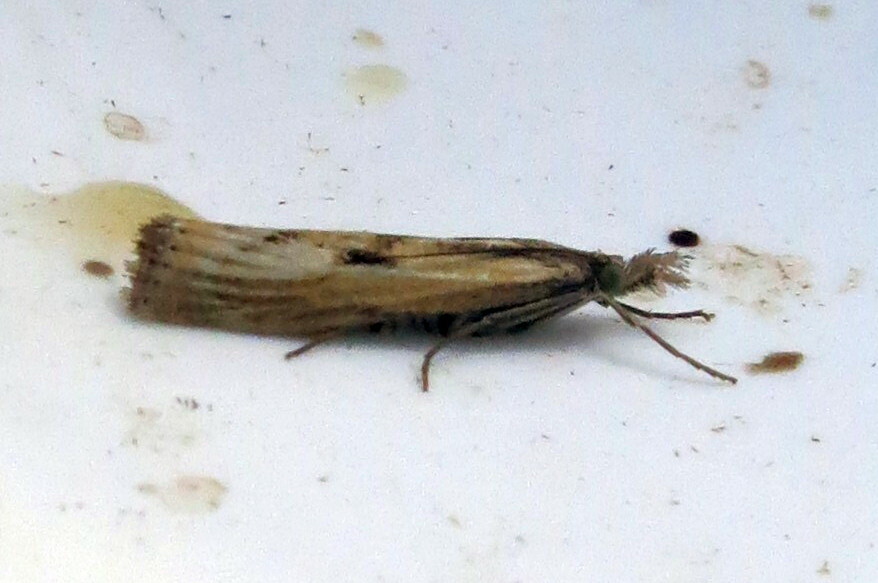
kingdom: Animalia
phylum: Arthropoda
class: Insecta
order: Lepidoptera
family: Crambidae
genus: Agriphila
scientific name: Agriphila inquinatella
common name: Barred grass-veneer
